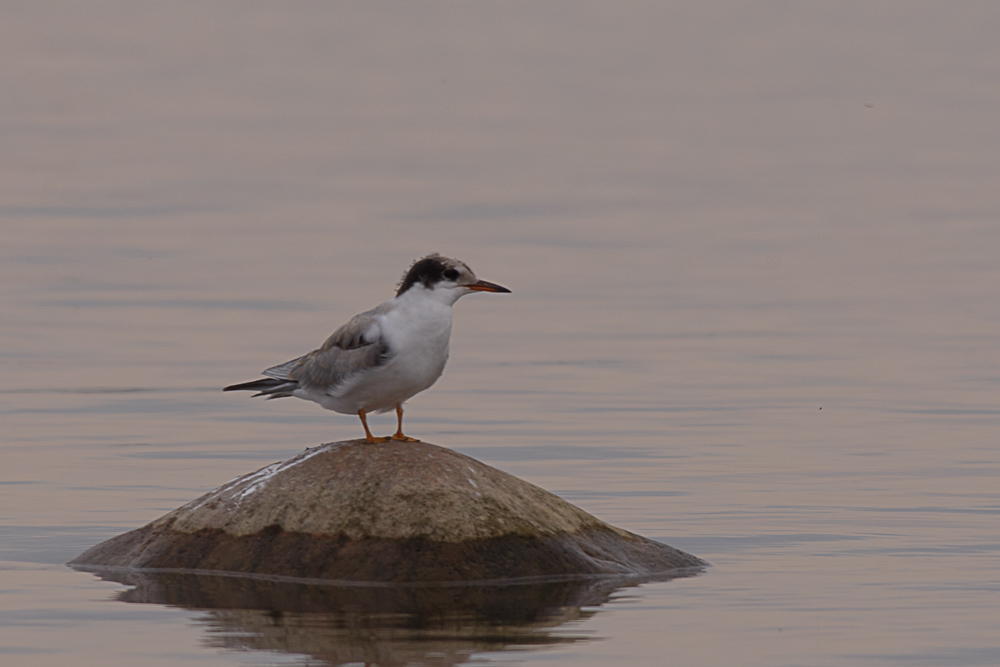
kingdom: Animalia
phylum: Chordata
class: Aves
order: Charadriiformes
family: Laridae
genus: Sterna
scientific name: Sterna hirundo
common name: Common tern
